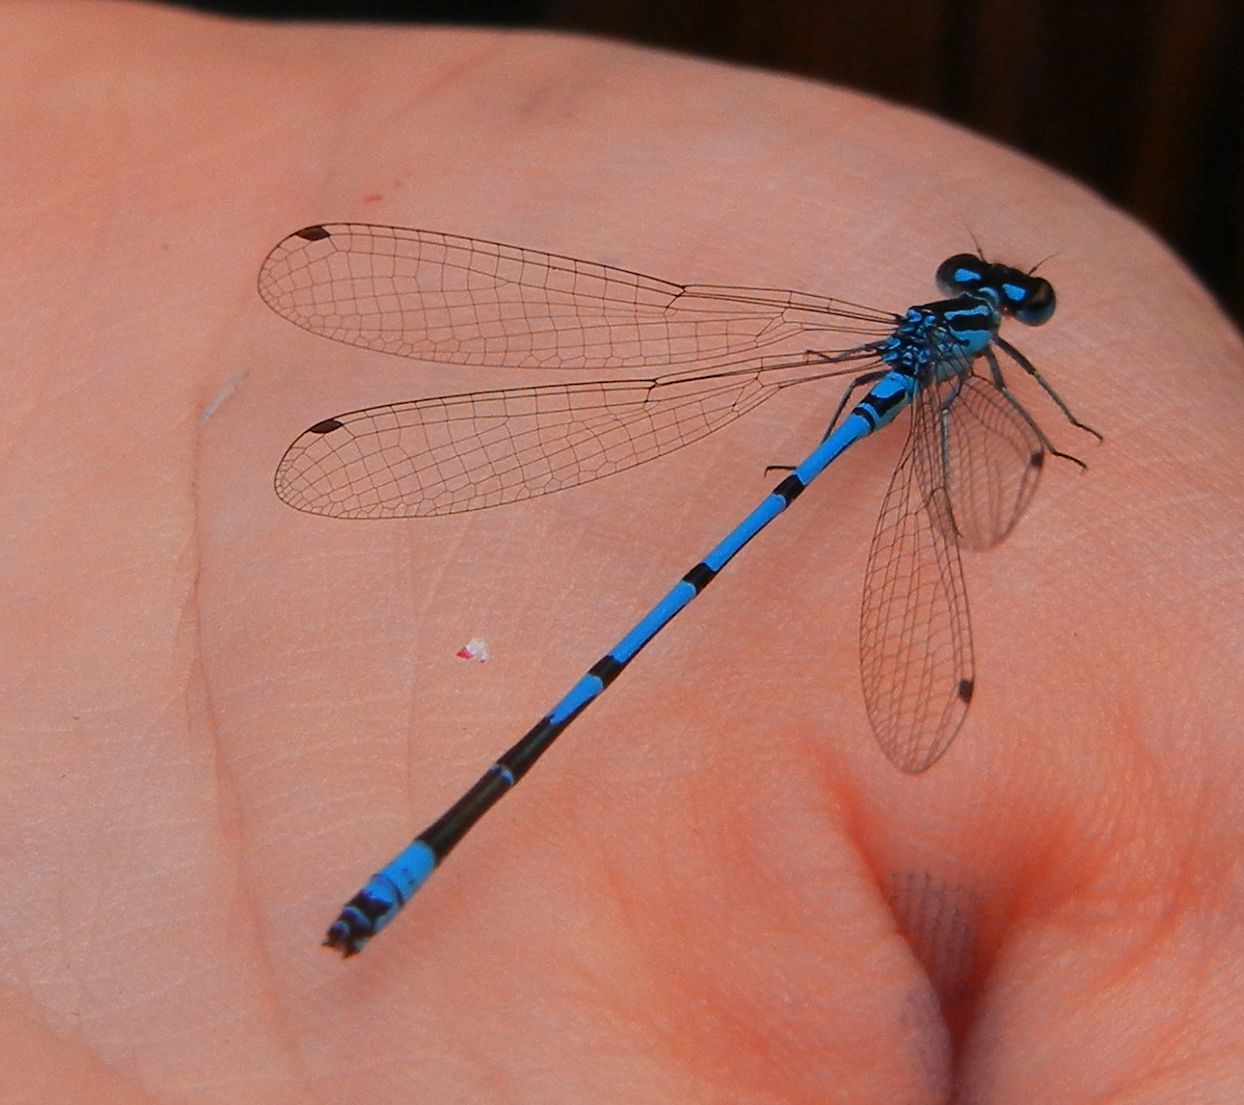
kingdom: Animalia
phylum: Arthropoda
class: Insecta
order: Odonata
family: Coenagrionidae
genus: Coenagrion
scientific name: Coenagrion puella
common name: Azure damselfly
